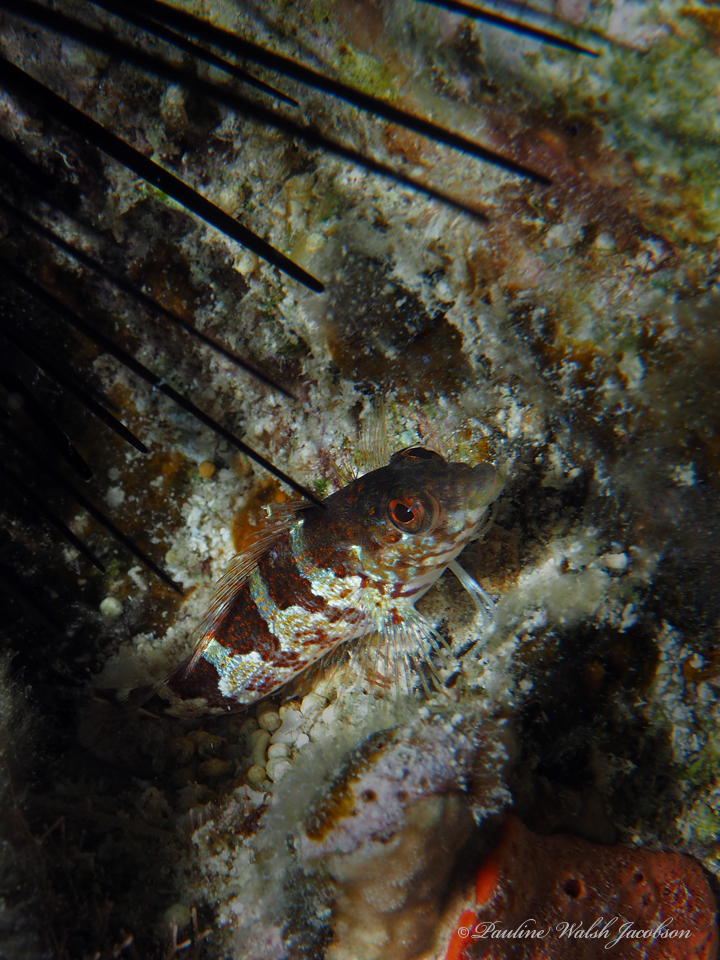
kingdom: Animalia
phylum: Chordata
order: Perciformes
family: Labrisomidae
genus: Malacoctenus
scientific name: Malacoctenus triangulatus
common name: Saddled blenny
